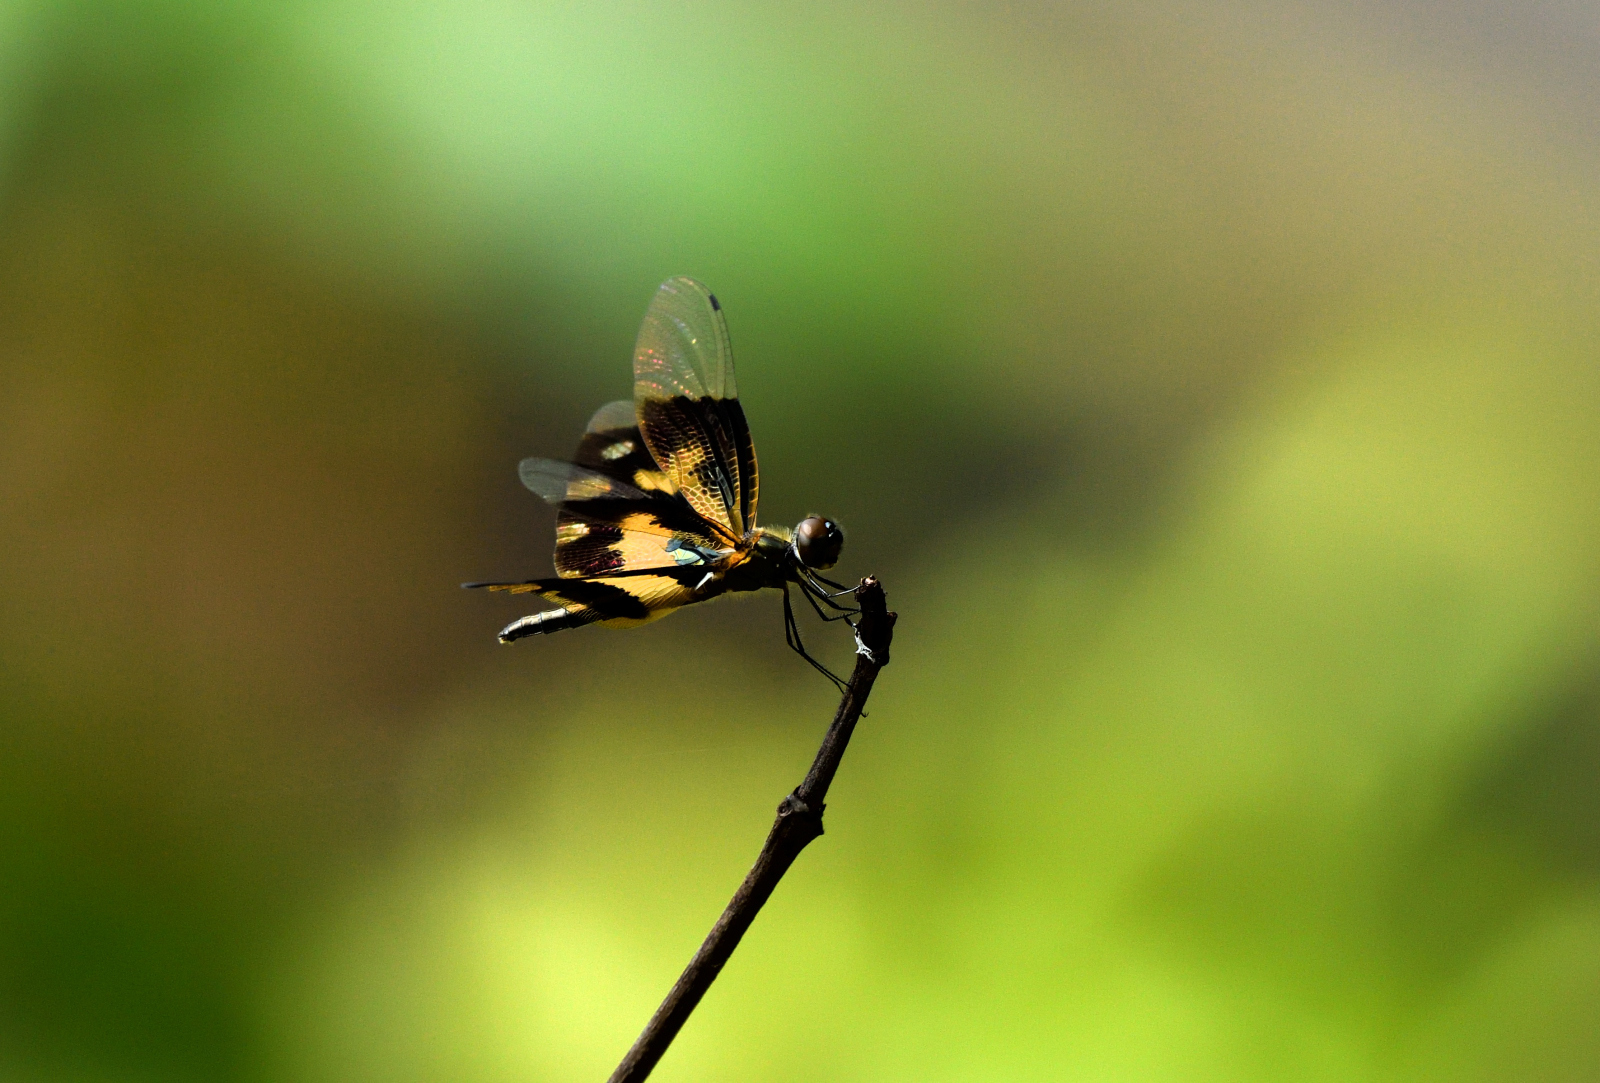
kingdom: Animalia
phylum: Arthropoda
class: Insecta
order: Odonata
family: Libellulidae
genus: Rhyothemis
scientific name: Rhyothemis variegata
